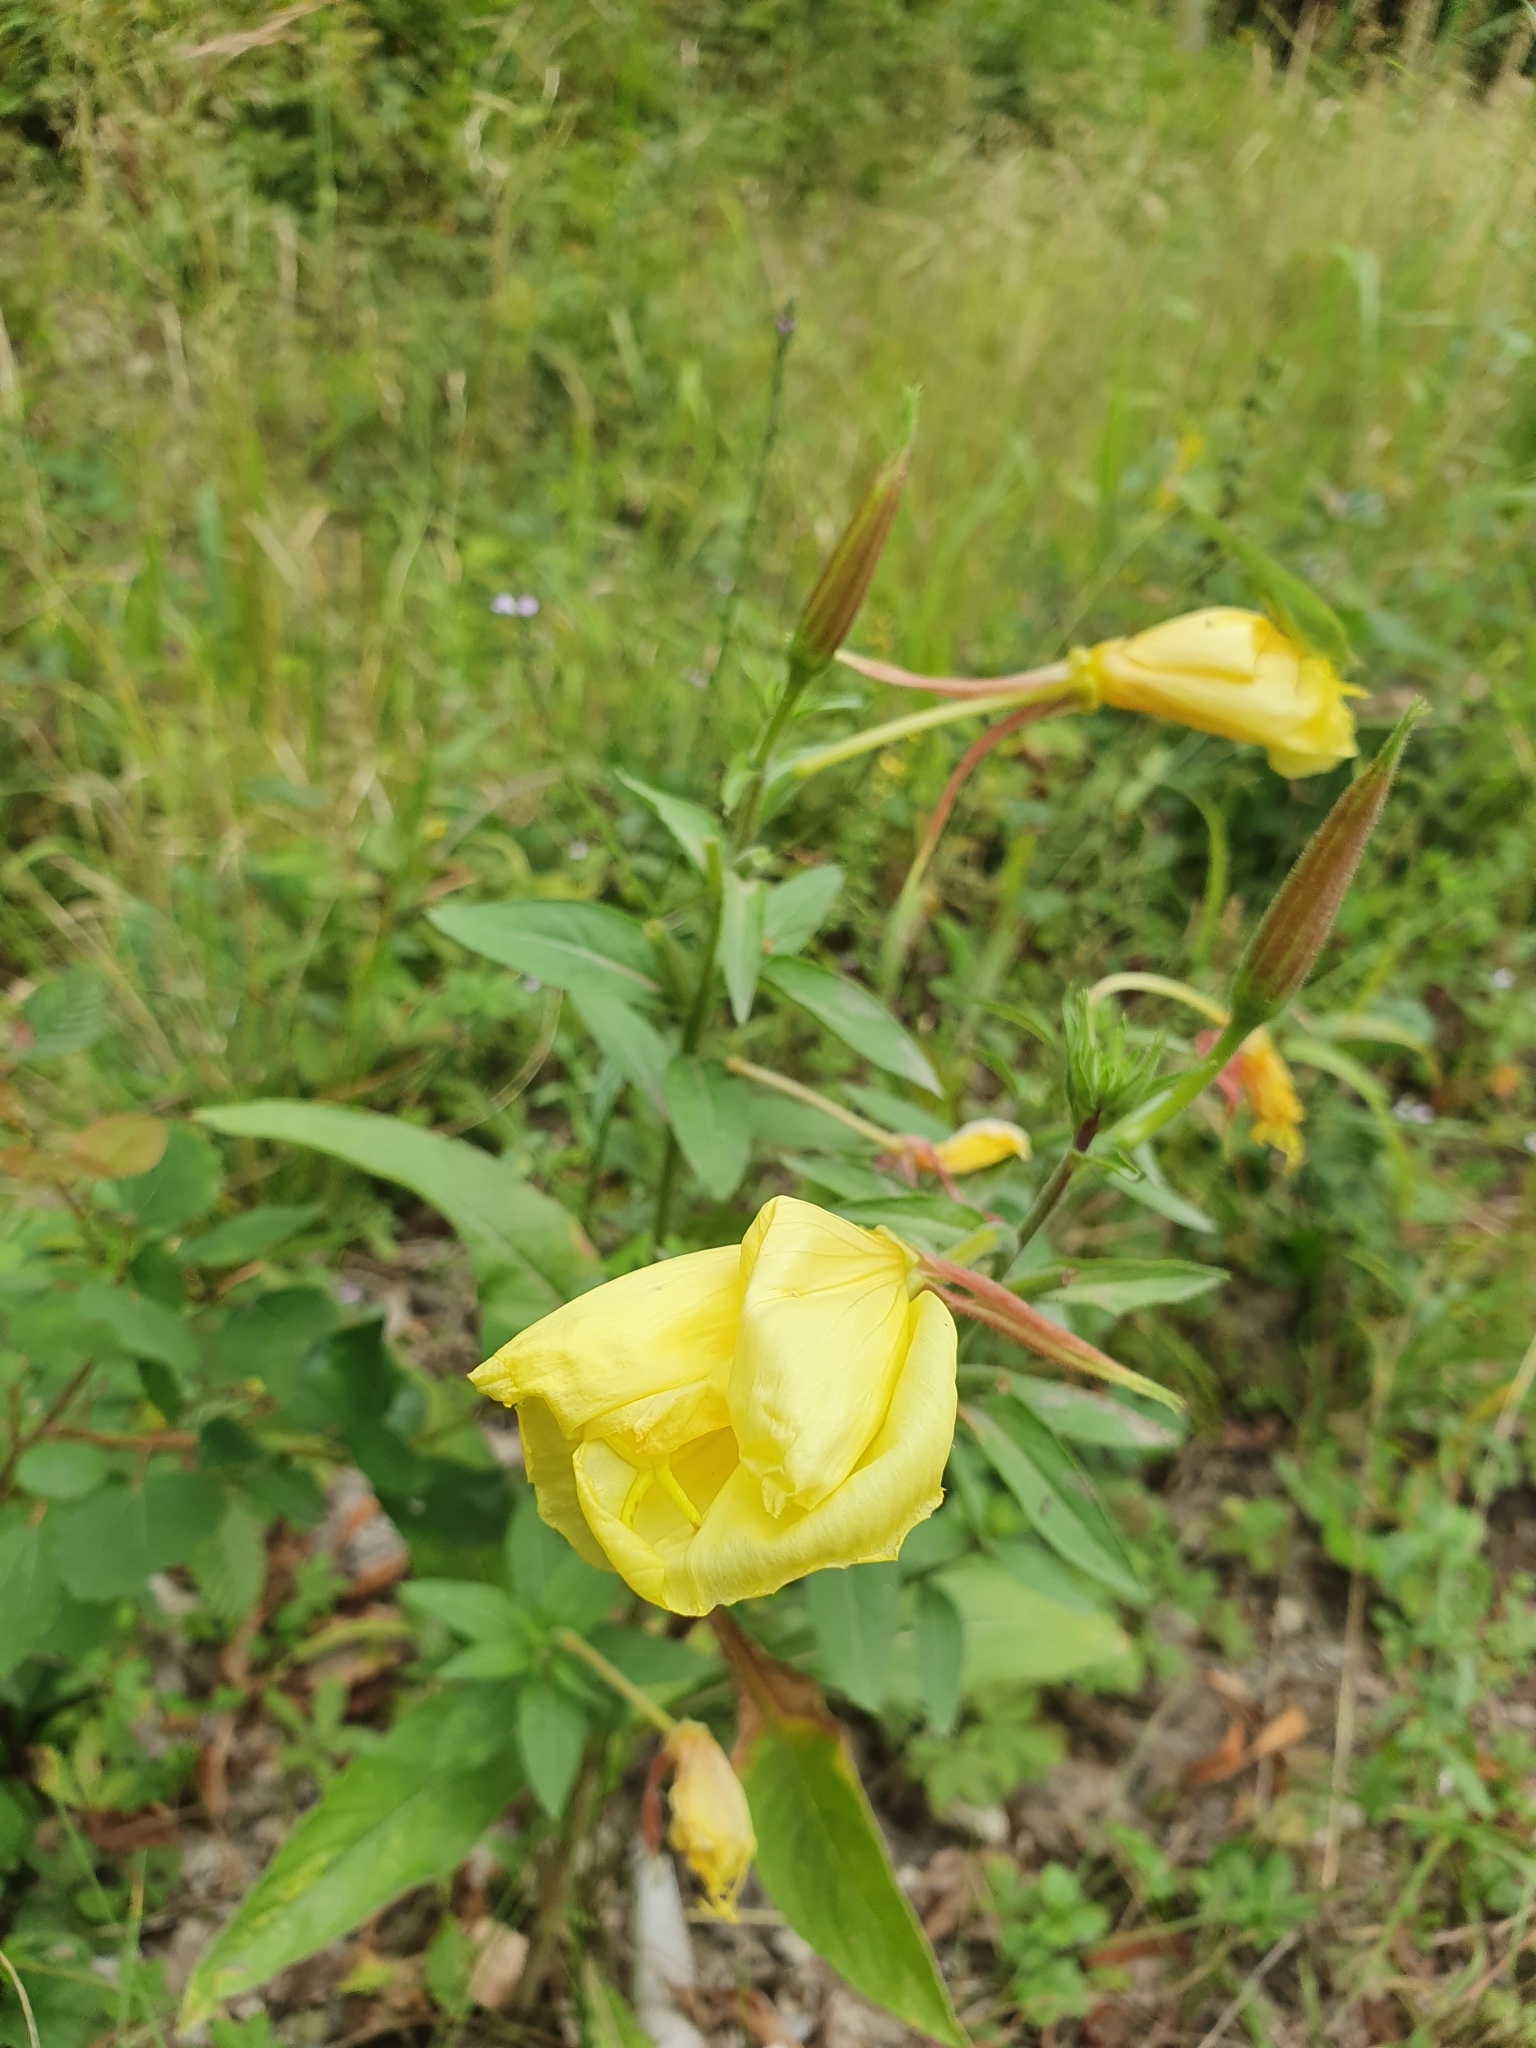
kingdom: Plantae
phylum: Tracheophyta
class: Magnoliopsida
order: Myrtales
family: Onagraceae
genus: Oenothera
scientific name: Oenothera glazioviana
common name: Large-flowered evening-primrose
